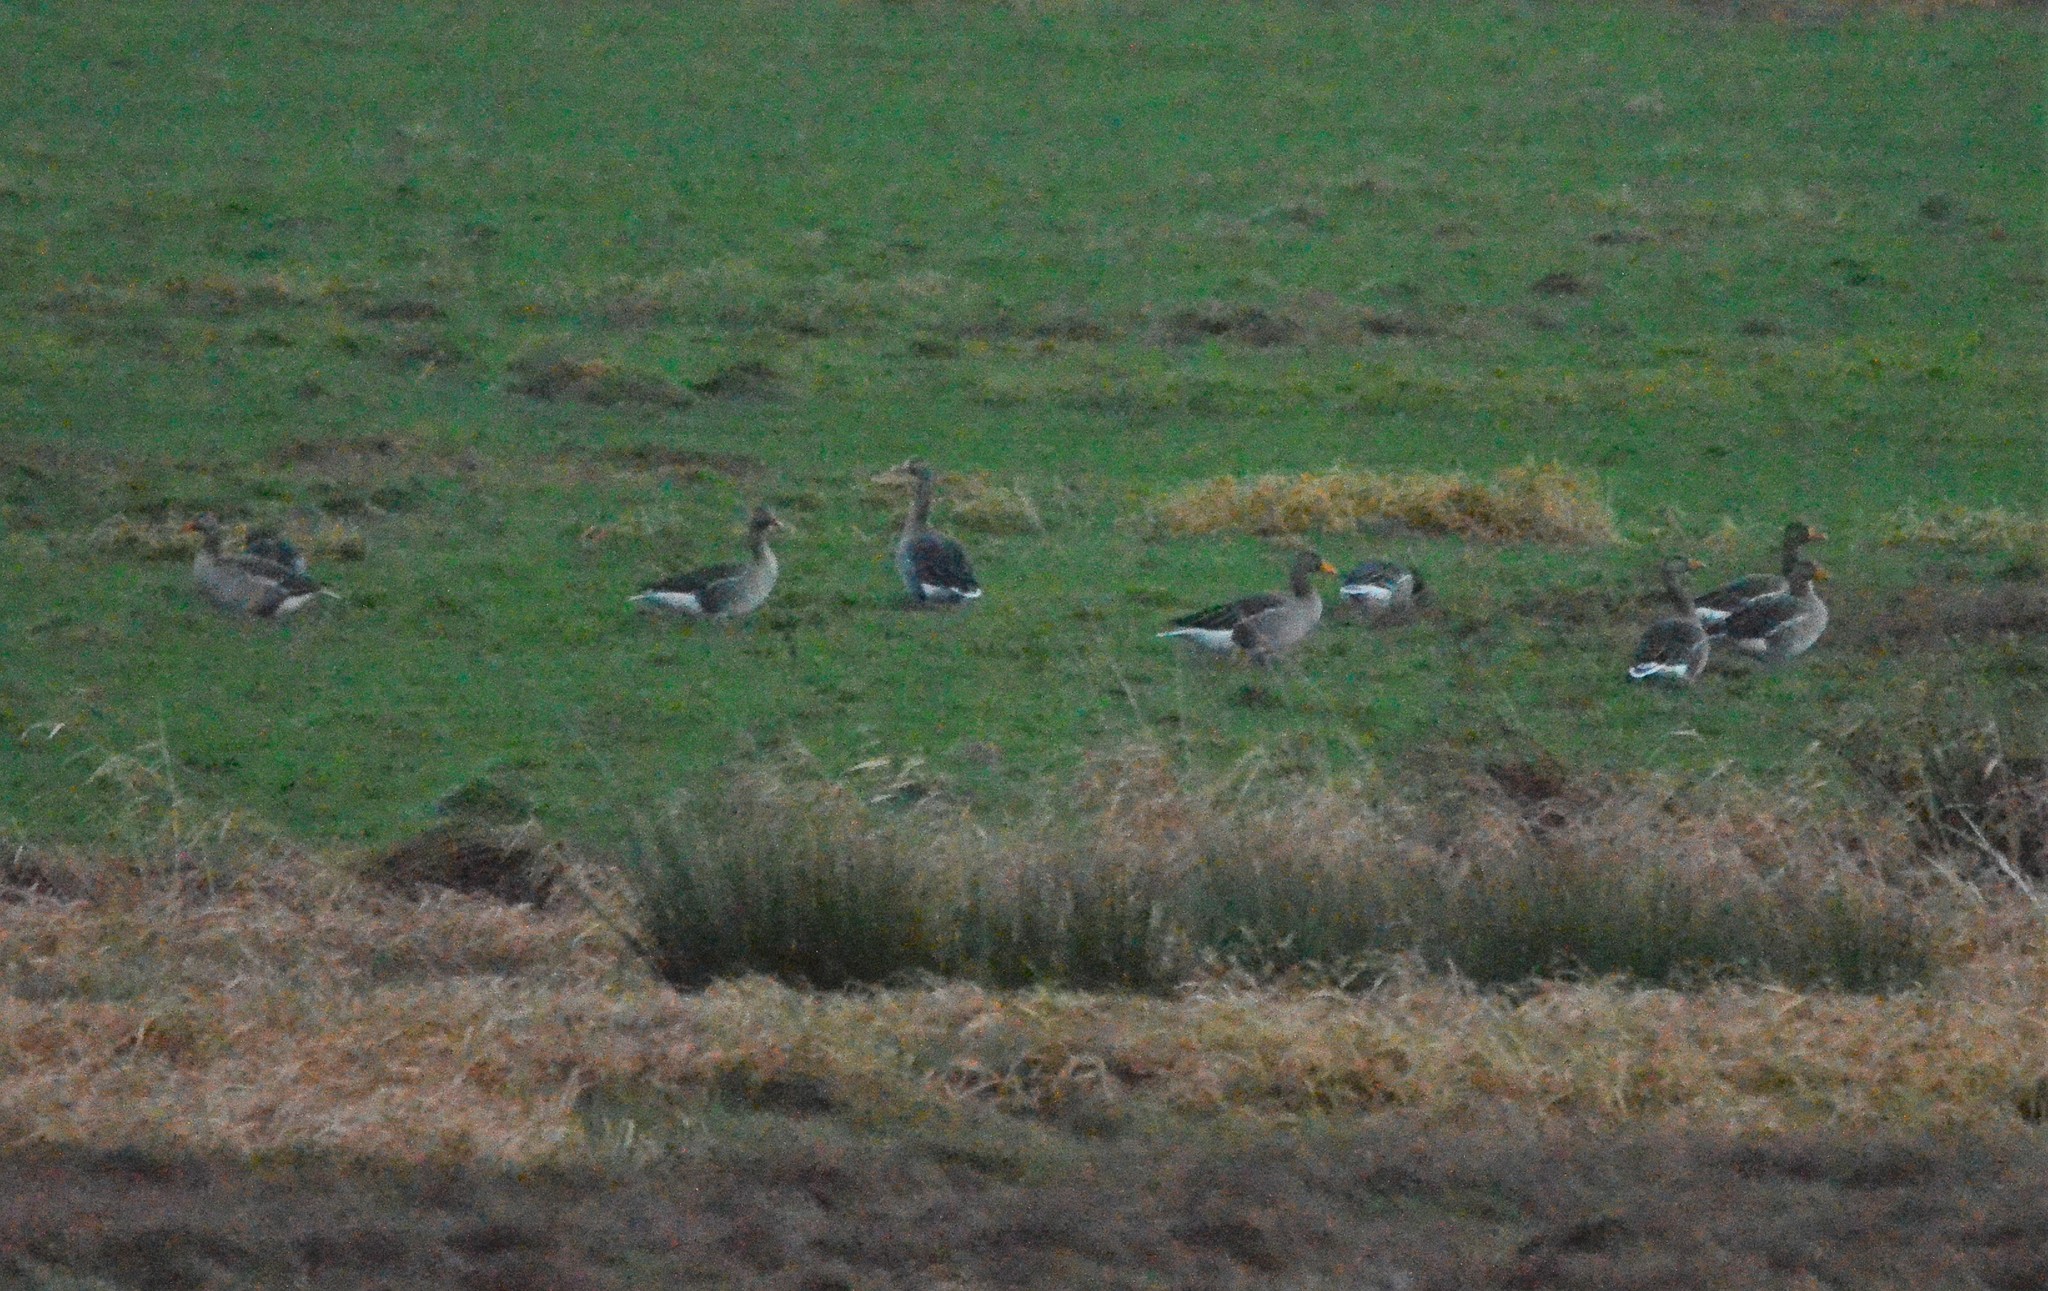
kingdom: Animalia
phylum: Chordata
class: Aves
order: Anseriformes
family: Anatidae
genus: Anser
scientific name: Anser albifrons
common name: Greater white-fronted goose
